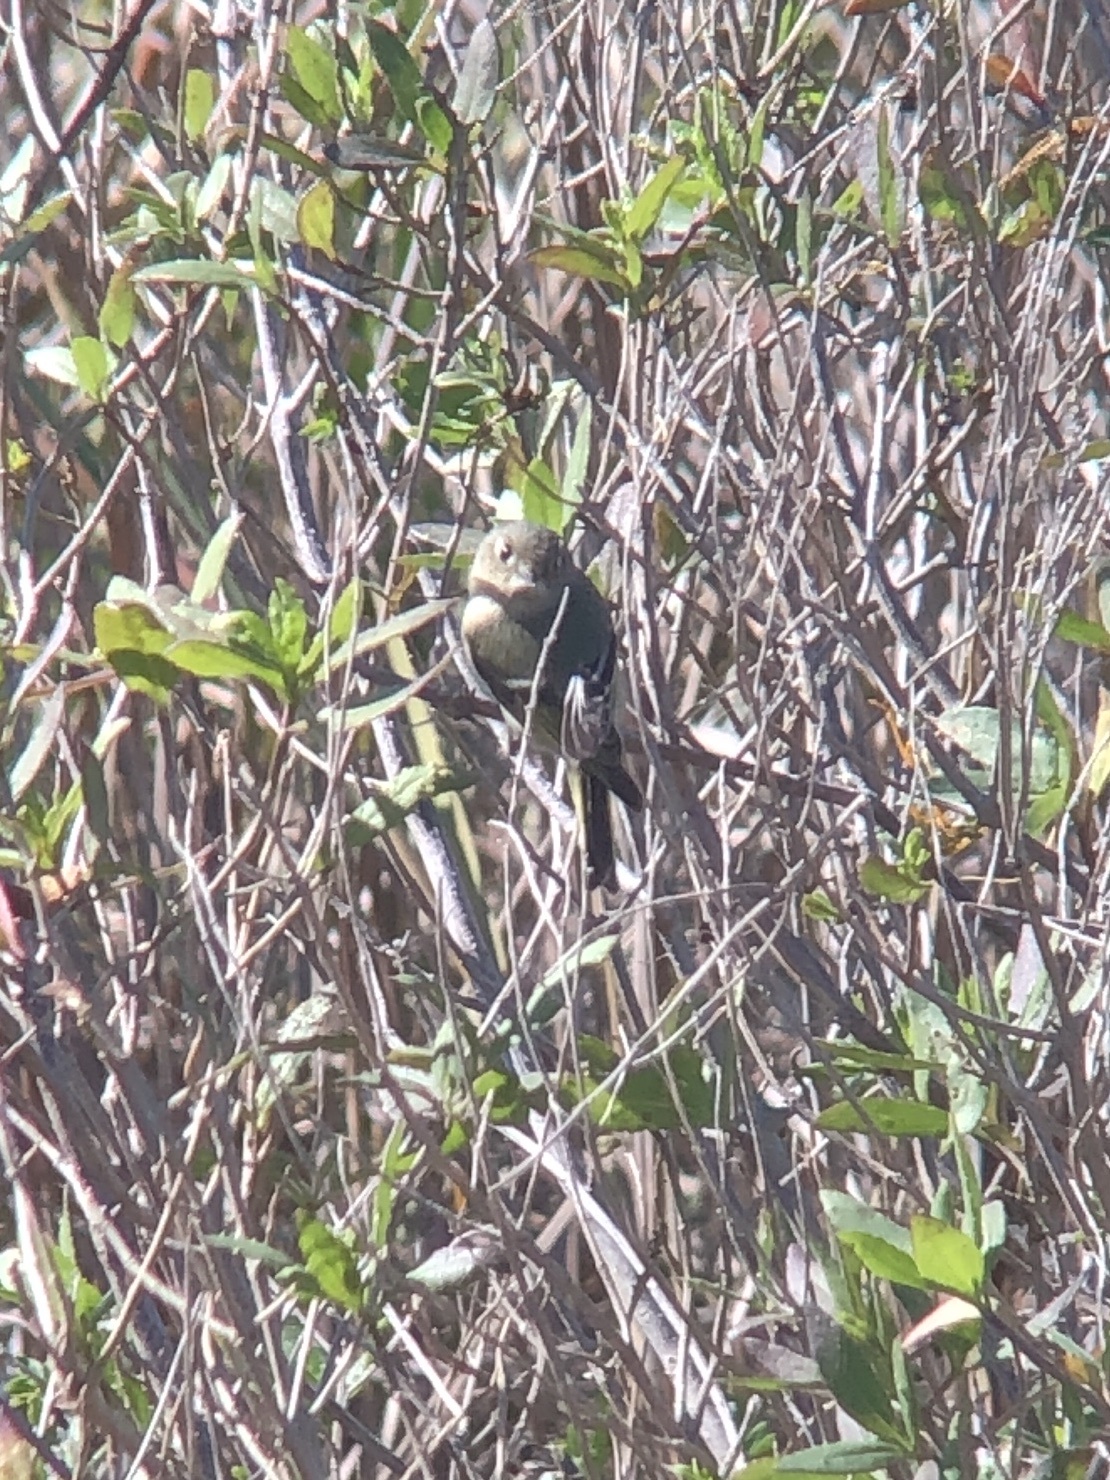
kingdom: Animalia
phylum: Chordata
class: Aves
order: Passeriformes
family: Regulidae
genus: Regulus
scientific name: Regulus calendula
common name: Ruby-crowned kinglet
